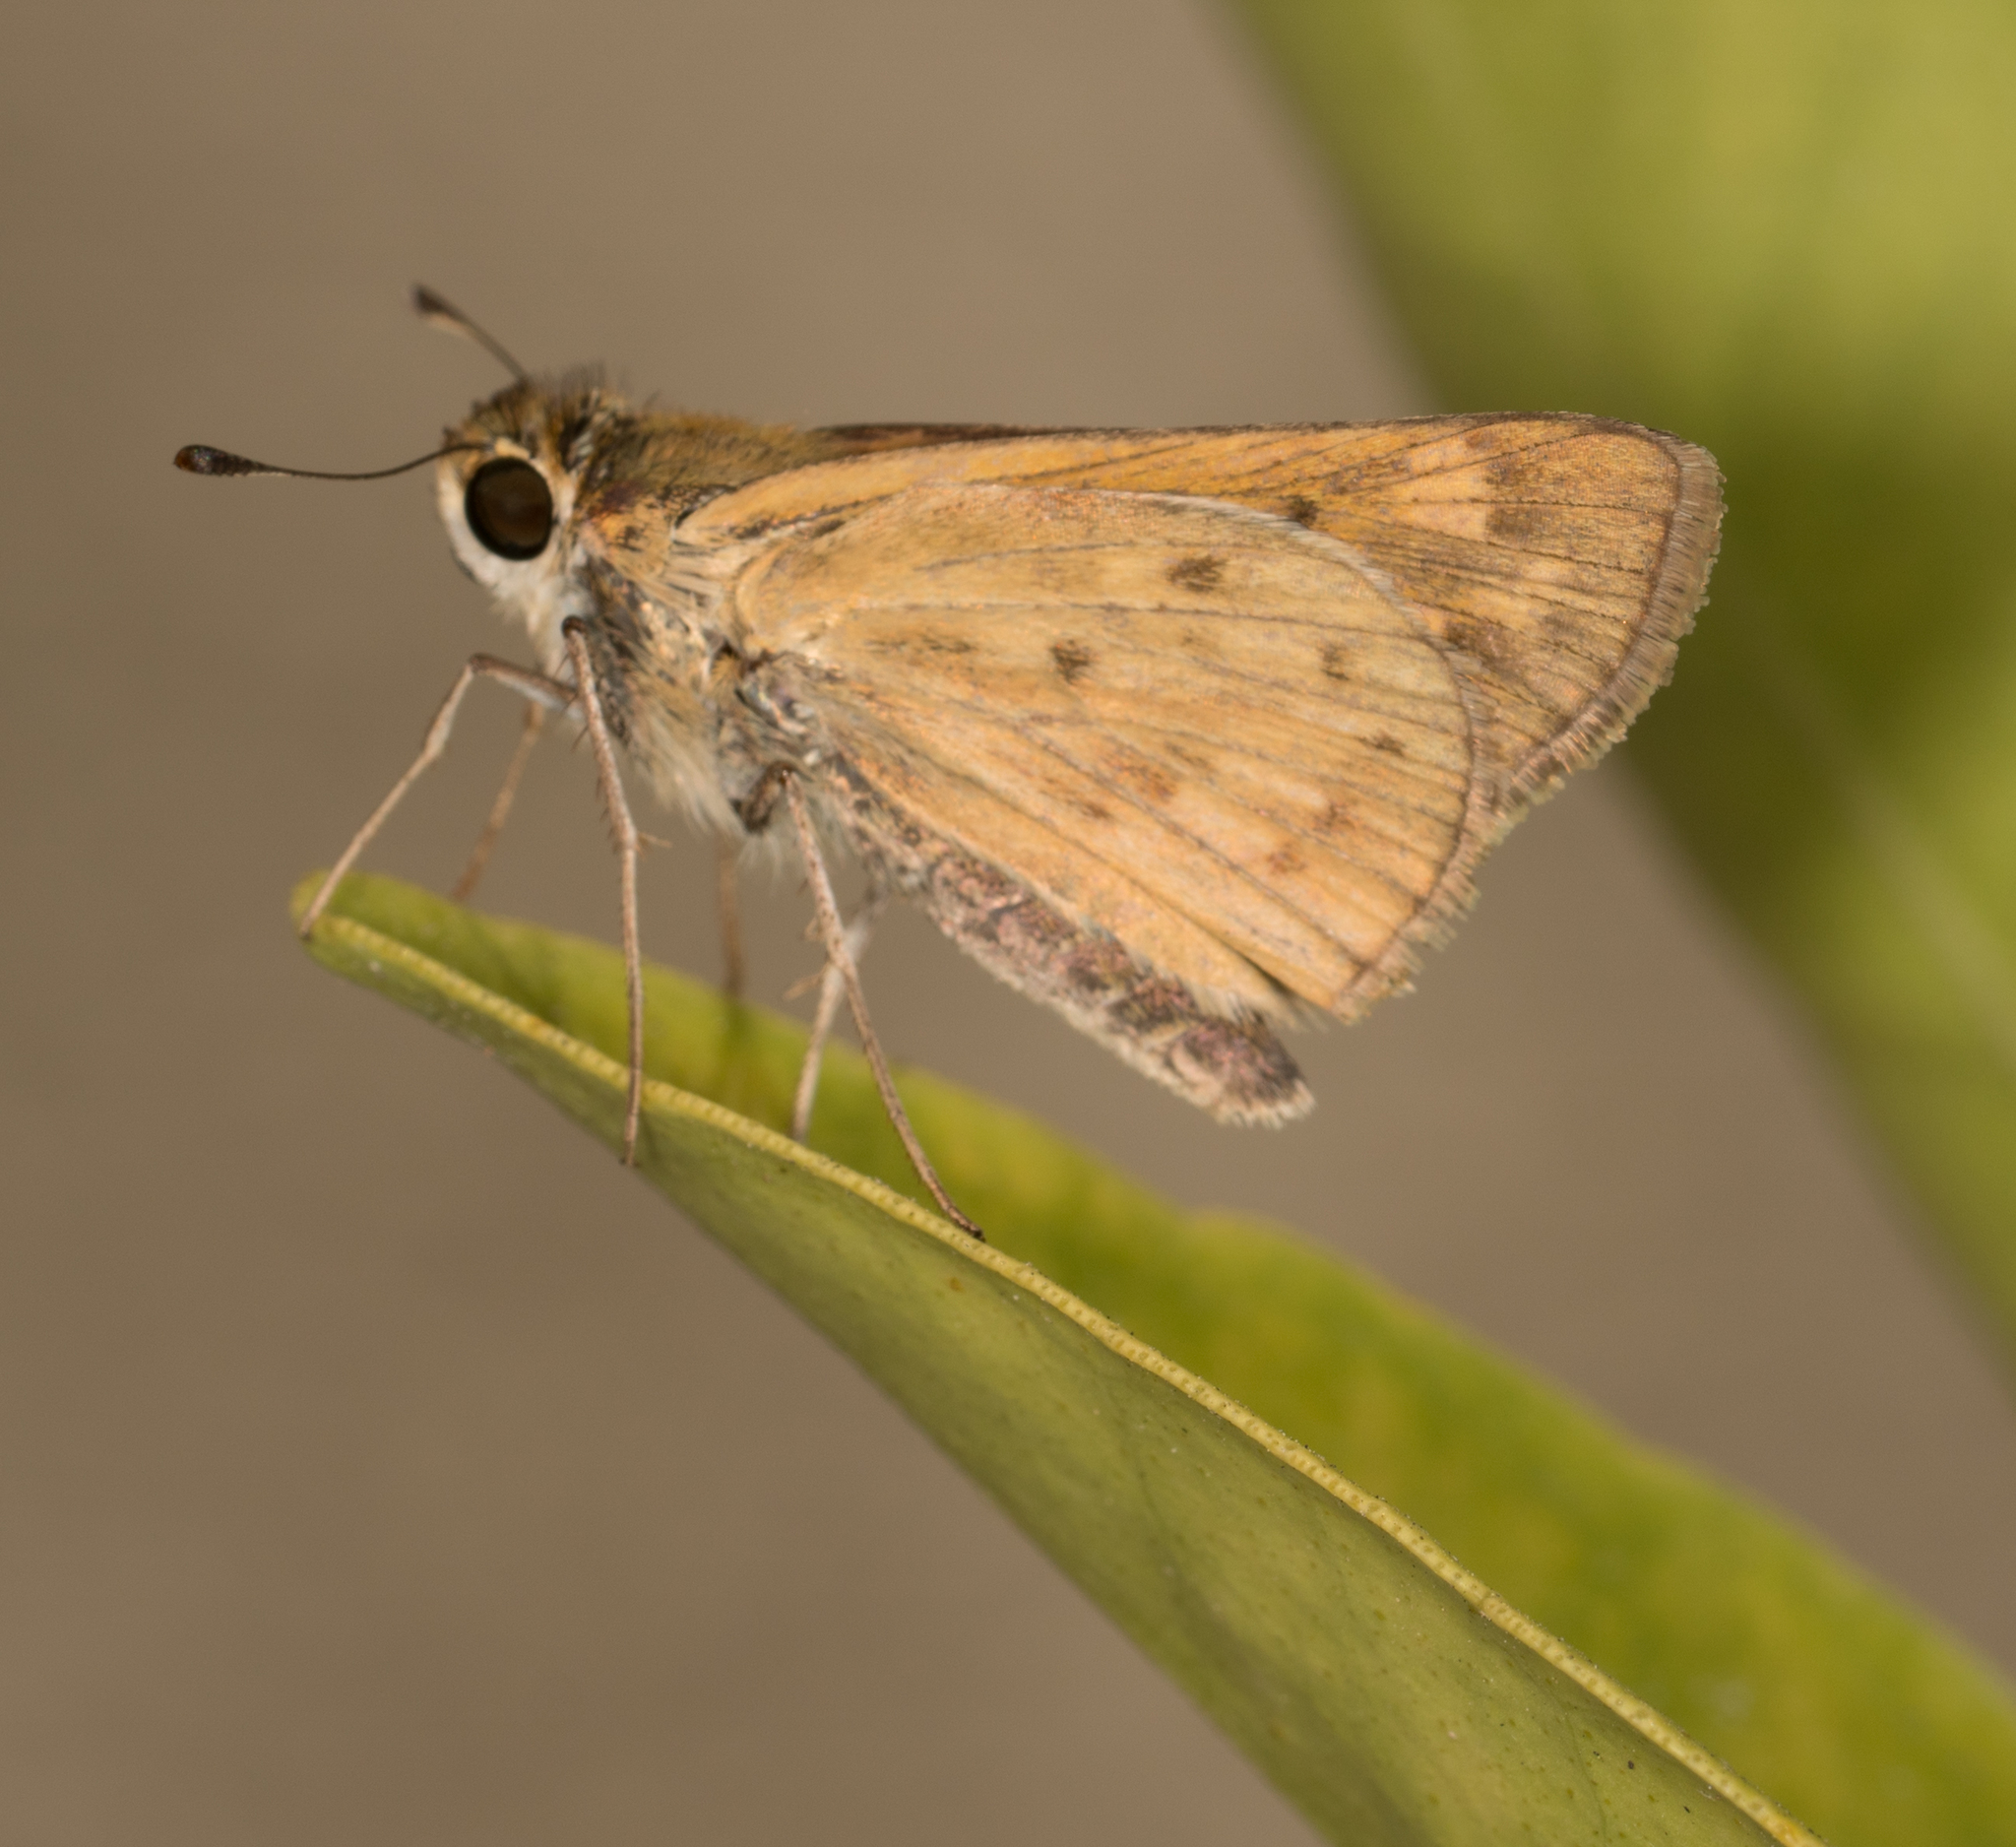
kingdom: Animalia
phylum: Arthropoda
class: Insecta
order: Lepidoptera
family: Hesperiidae
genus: Hylephila
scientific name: Hylephila phyleus
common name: Fiery skipper
